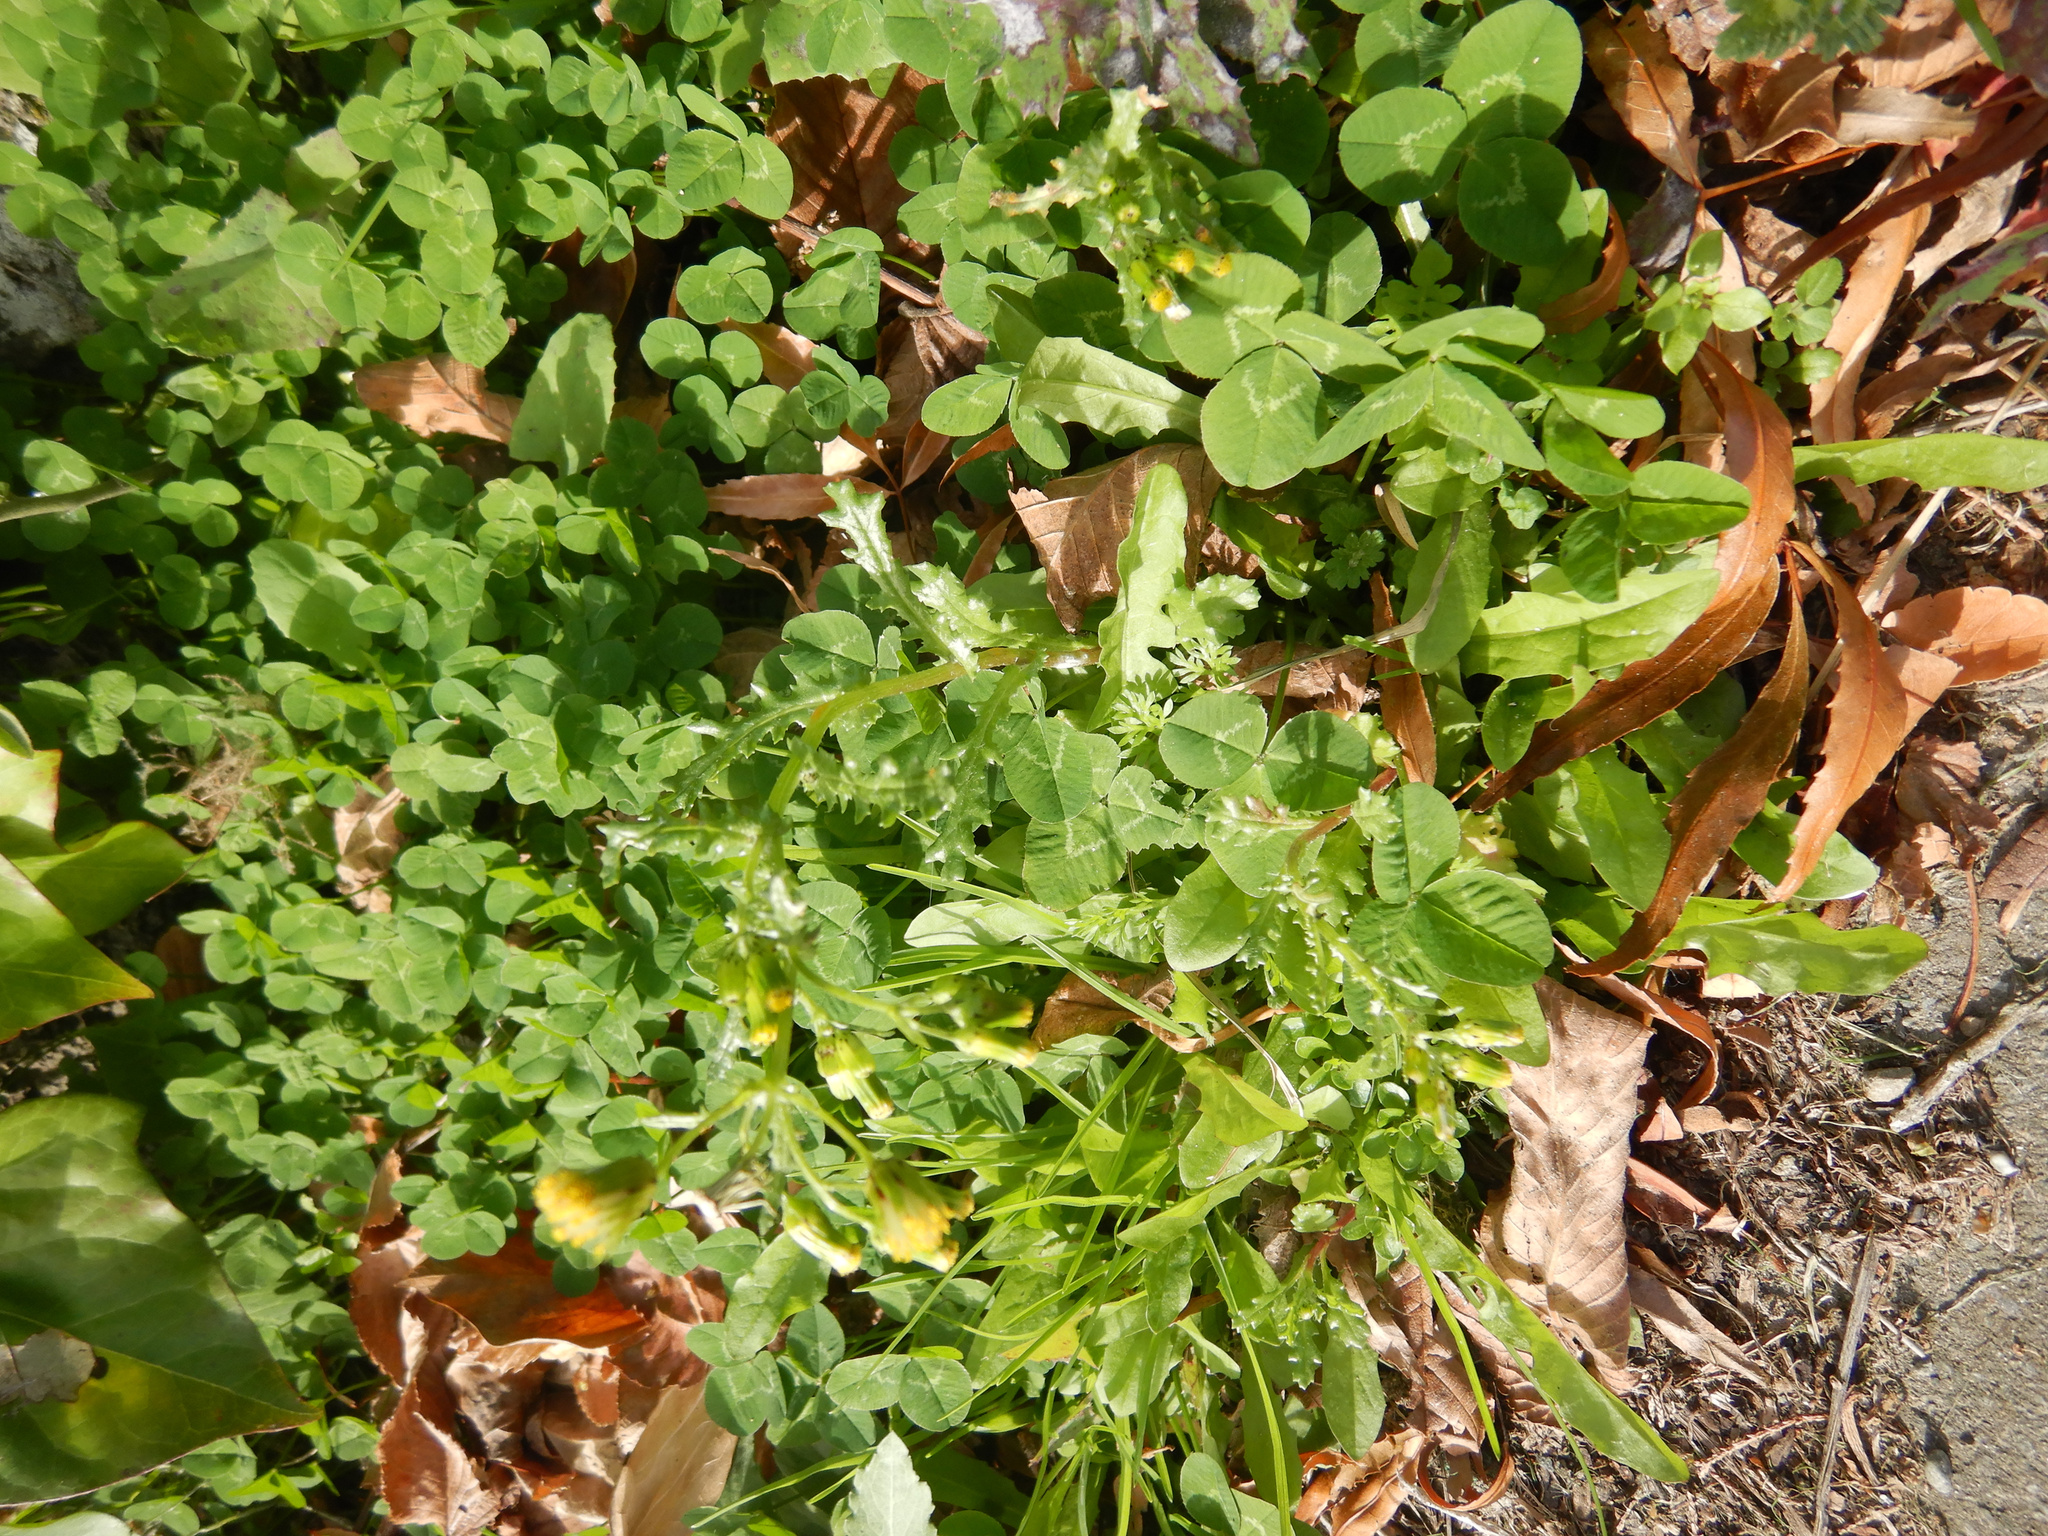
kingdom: Plantae
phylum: Tracheophyta
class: Magnoliopsida
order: Asterales
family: Asteraceae
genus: Senecio
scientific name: Senecio vulgaris
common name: Old-man-in-the-spring
